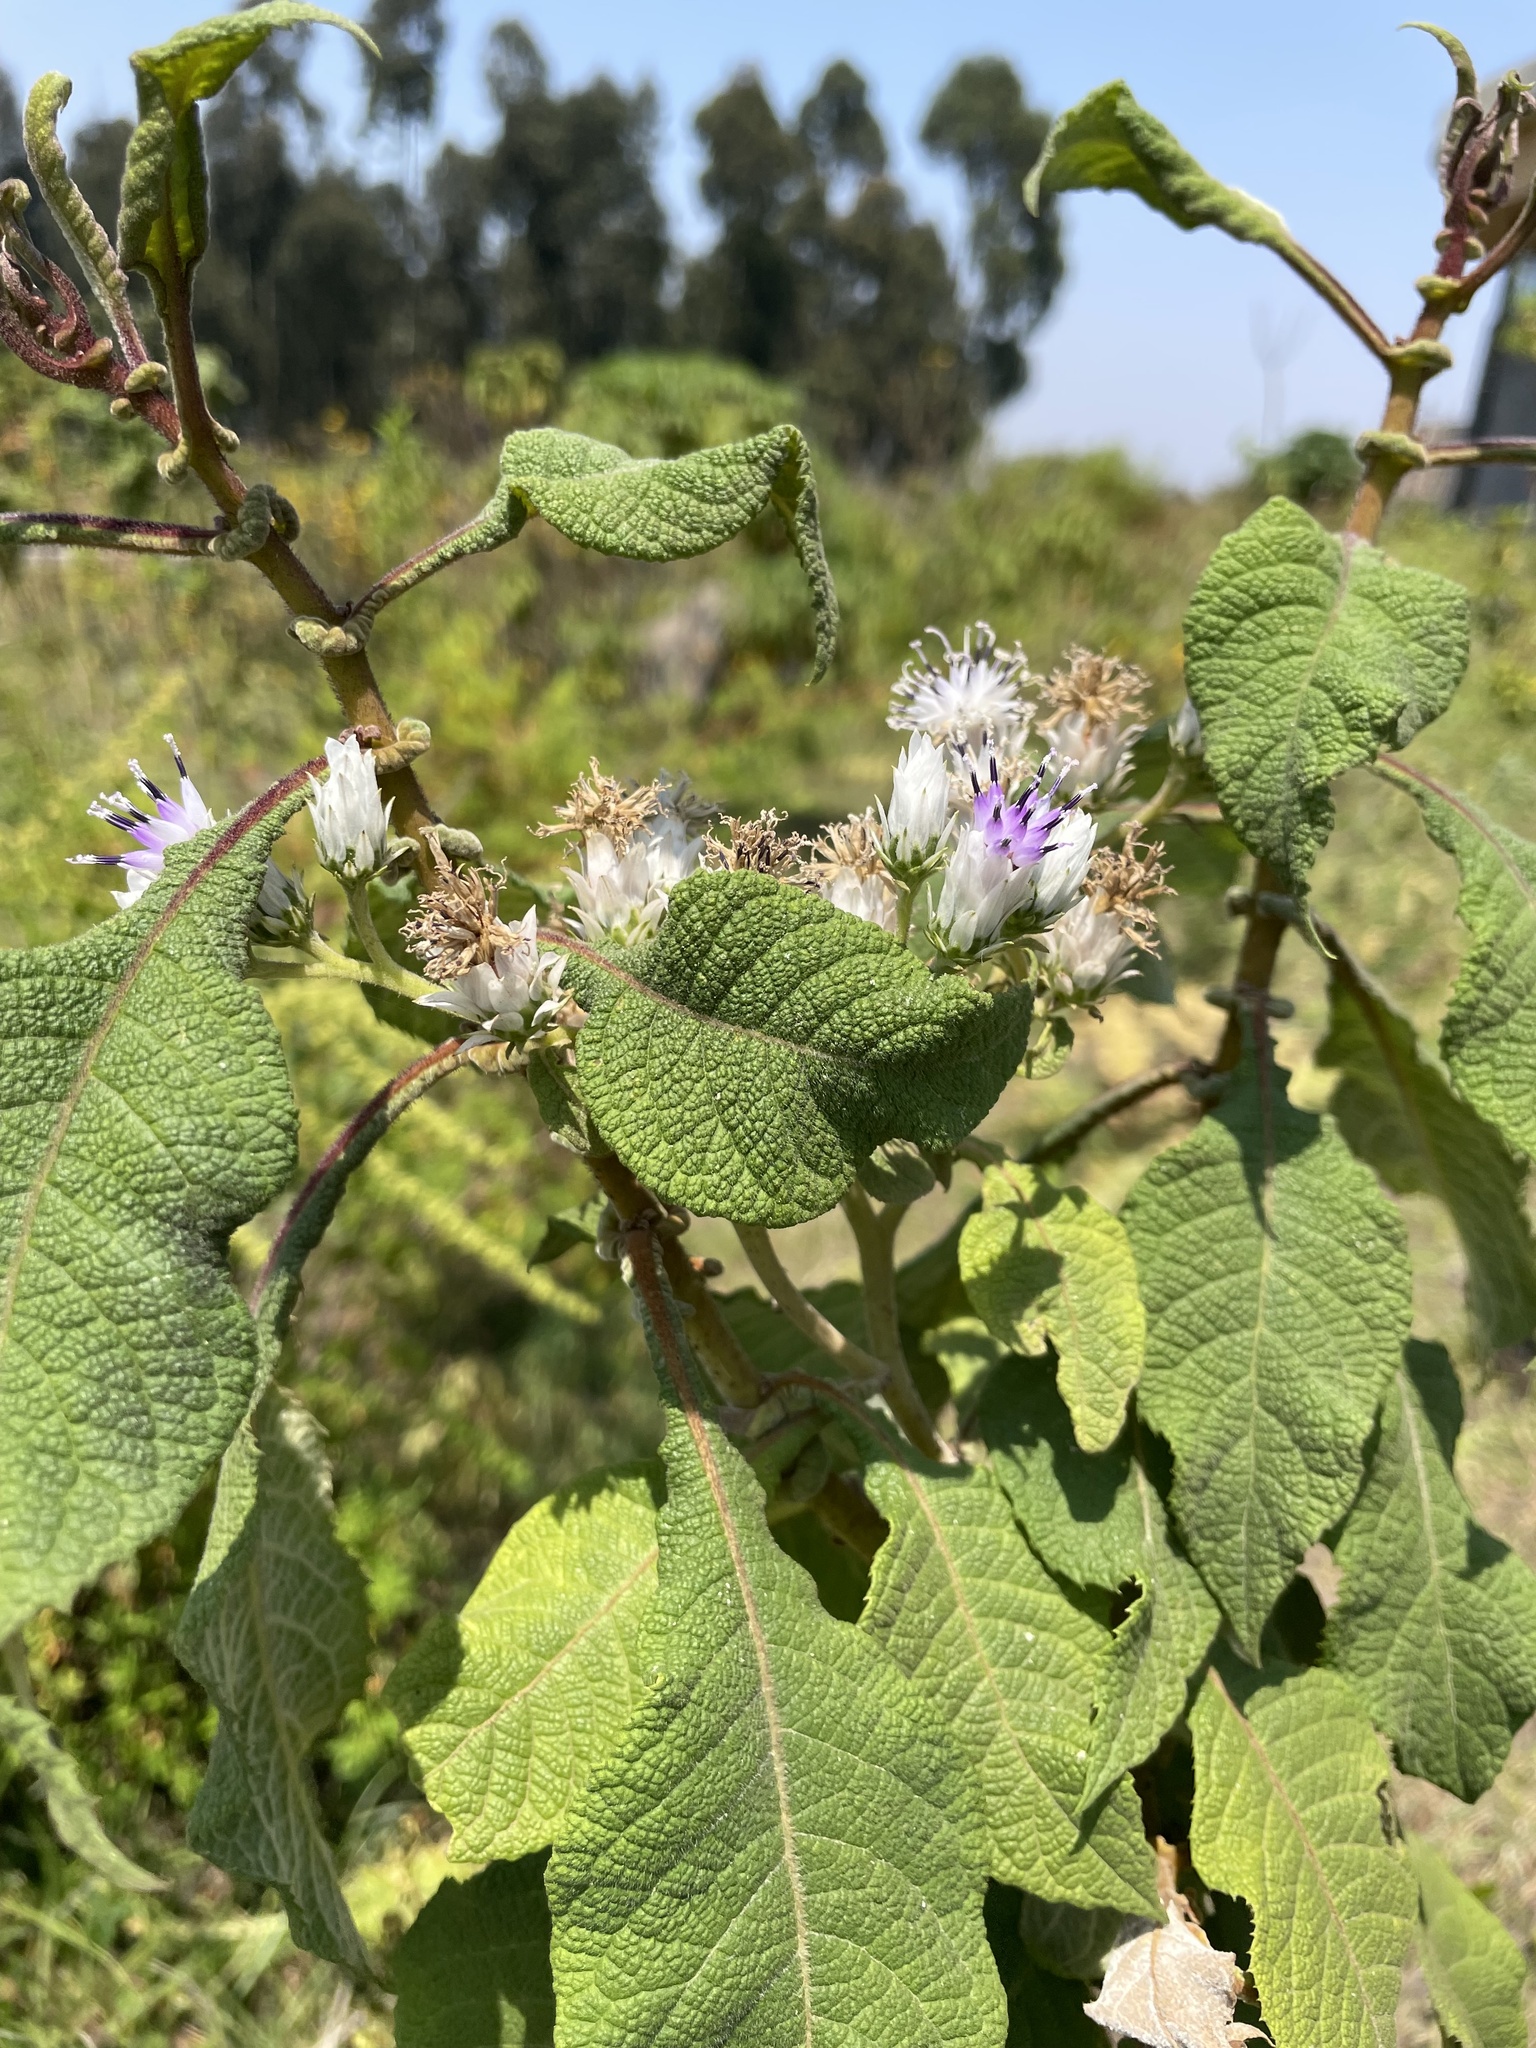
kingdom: Plantae
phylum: Tracheophyta
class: Magnoliopsida
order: Asterales
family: Asteraceae
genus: Baccharoides
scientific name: Baccharoides kirungae
